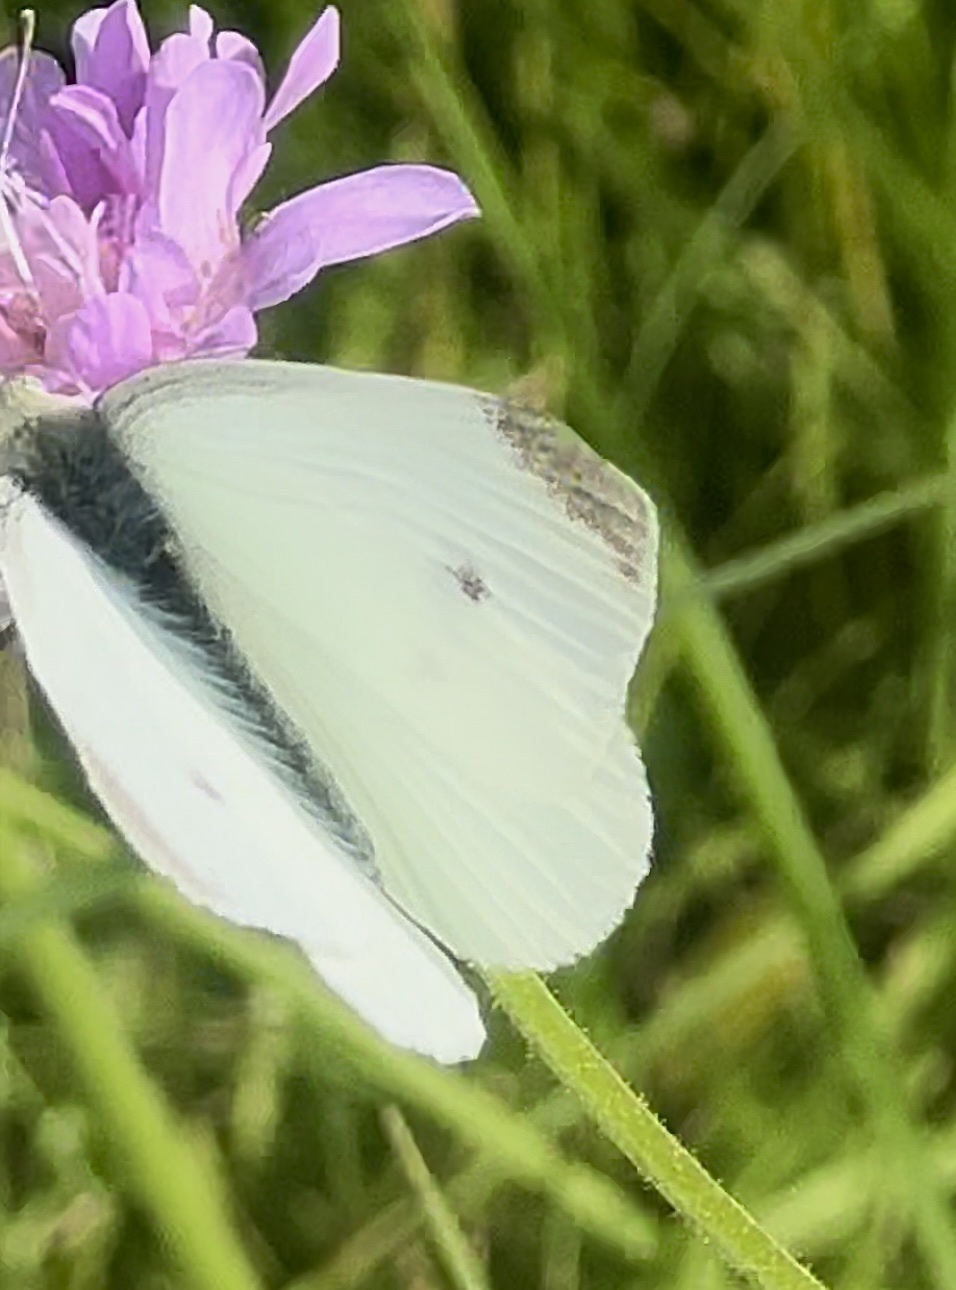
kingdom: Animalia
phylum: Arthropoda
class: Insecta
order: Lepidoptera
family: Pieridae
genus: Pieris
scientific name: Pieris rapae
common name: Small white
